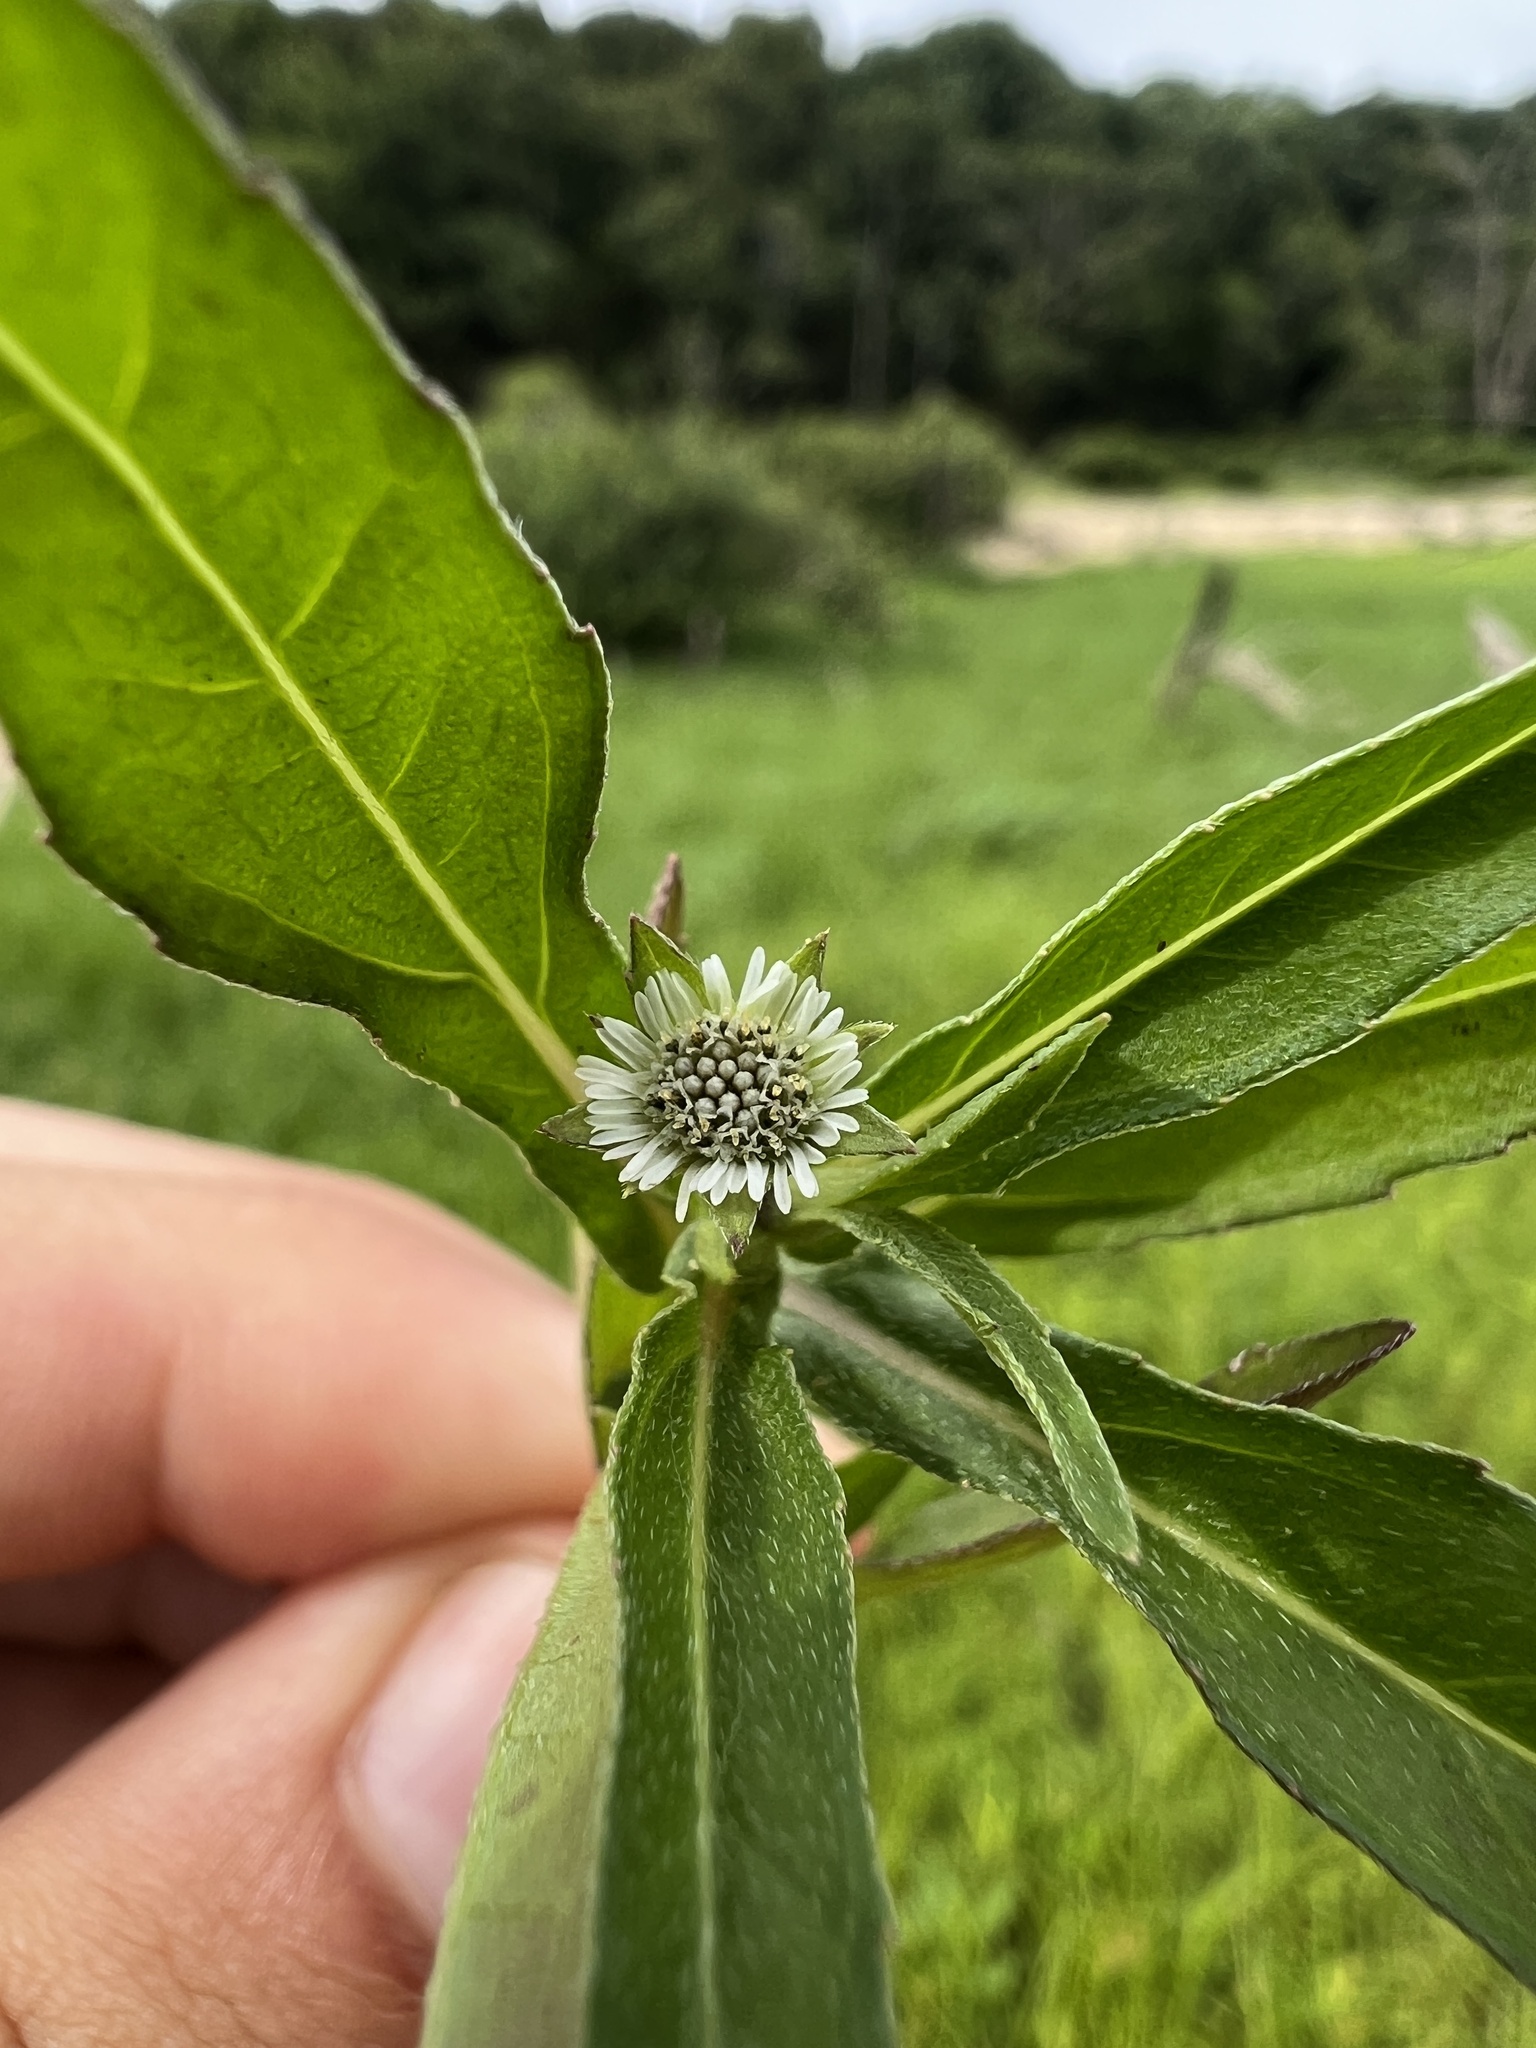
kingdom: Plantae
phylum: Tracheophyta
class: Magnoliopsida
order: Asterales
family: Asteraceae
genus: Eclipta
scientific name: Eclipta prostrata
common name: False daisy
